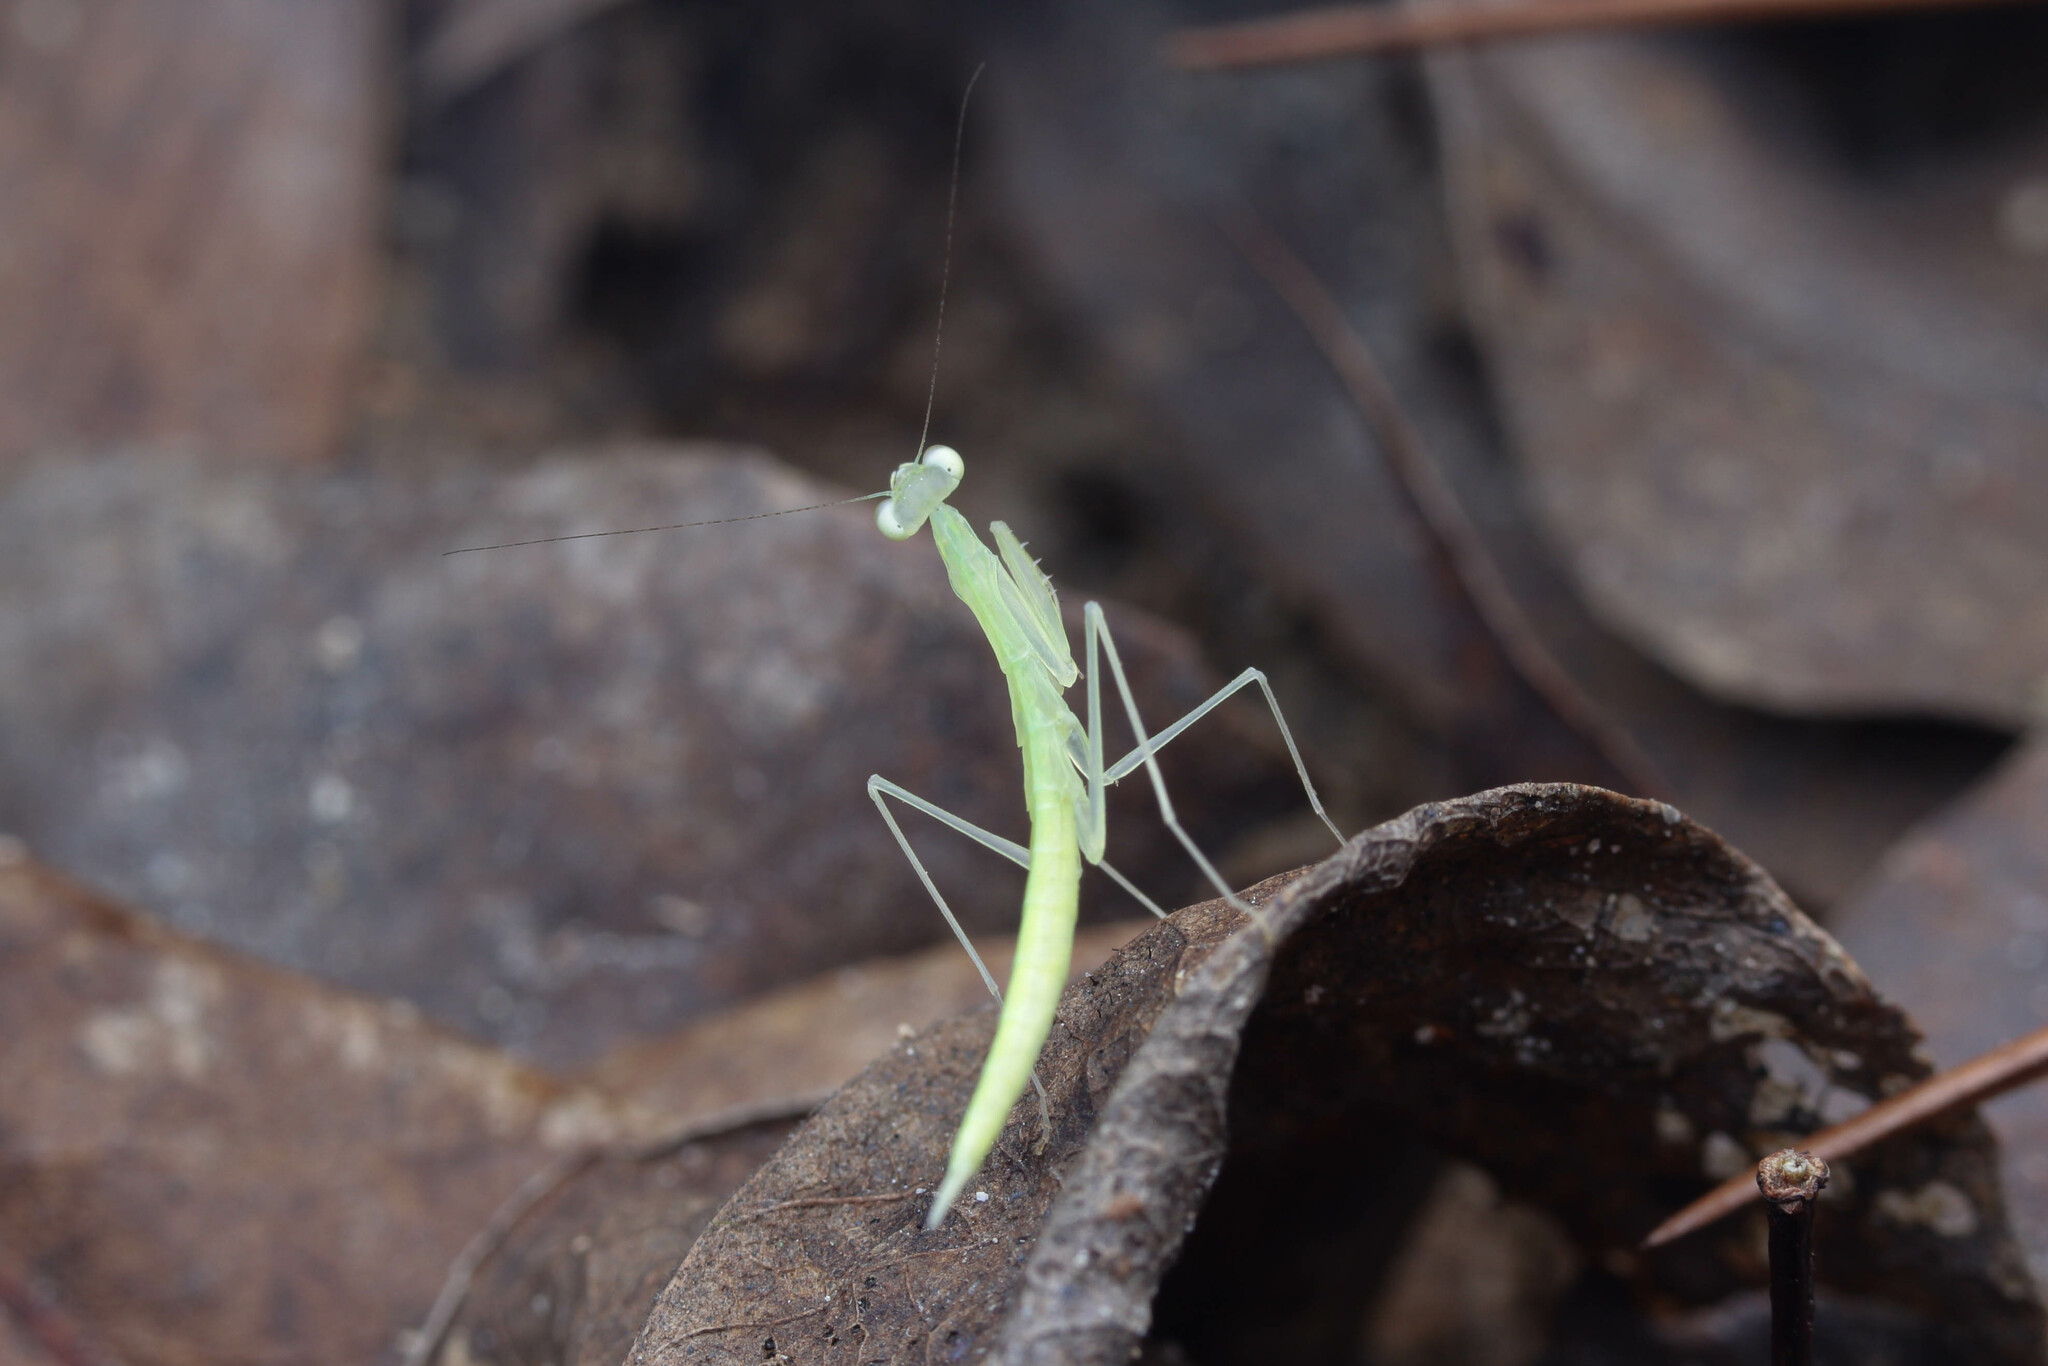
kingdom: Animalia
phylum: Arthropoda
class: Insecta
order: Mantodea
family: Nanomantidae
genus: Sinomantis
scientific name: Sinomantis denticulata
